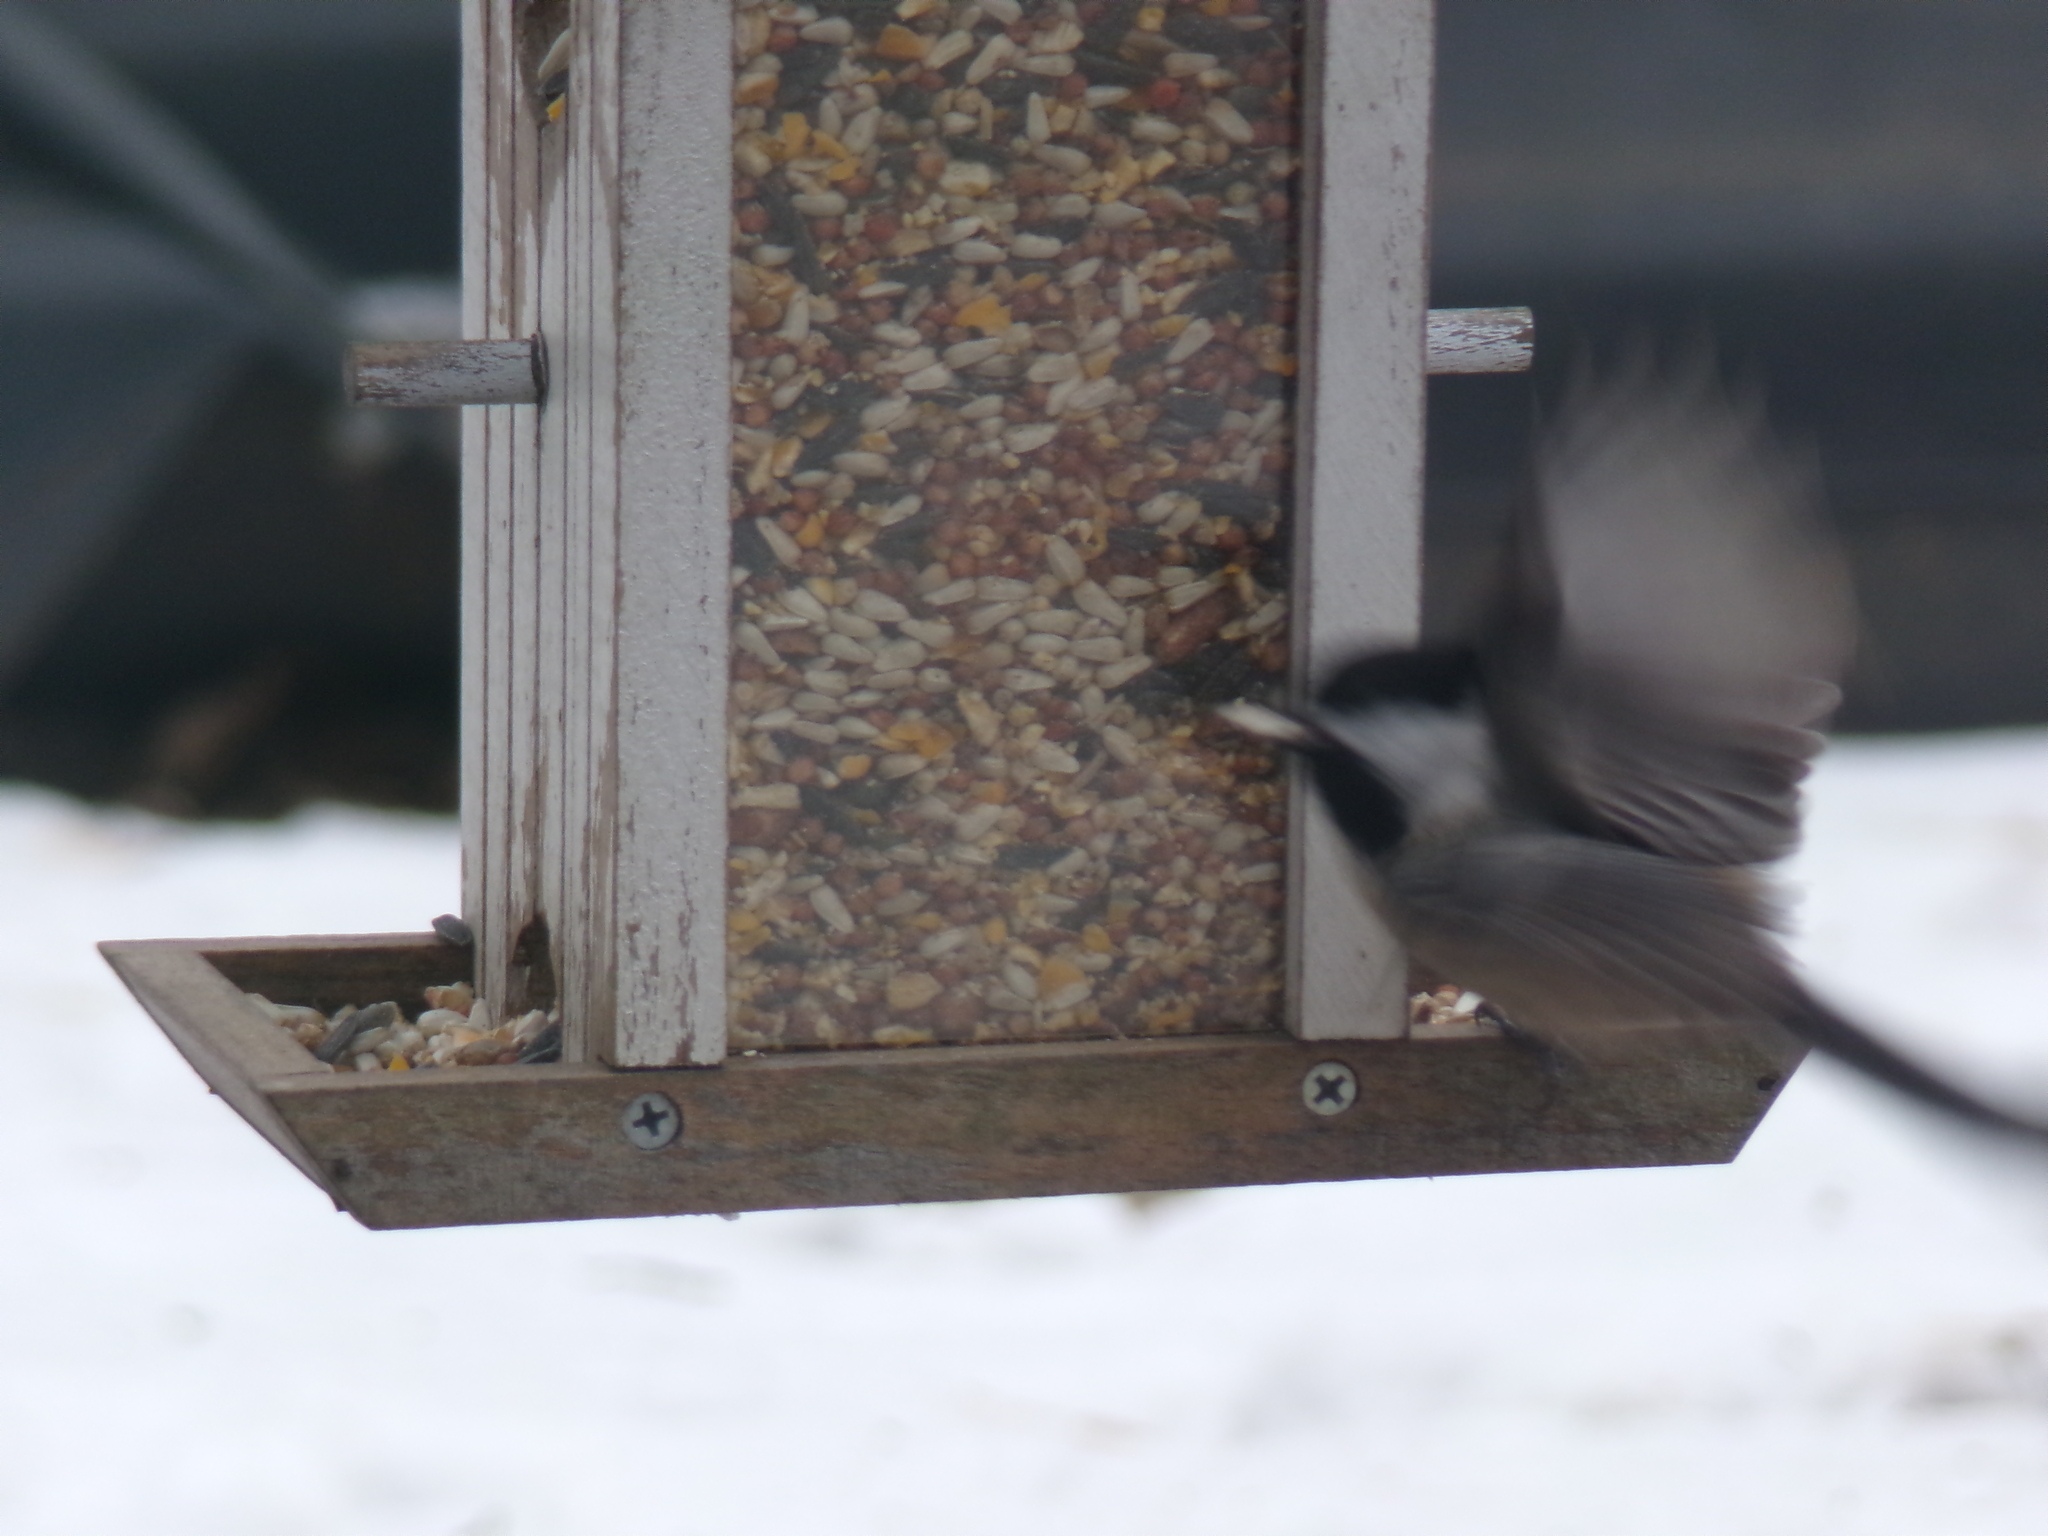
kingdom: Animalia
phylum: Chordata
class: Aves
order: Passeriformes
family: Paridae
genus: Poecile
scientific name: Poecile atricapillus
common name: Black-capped chickadee
